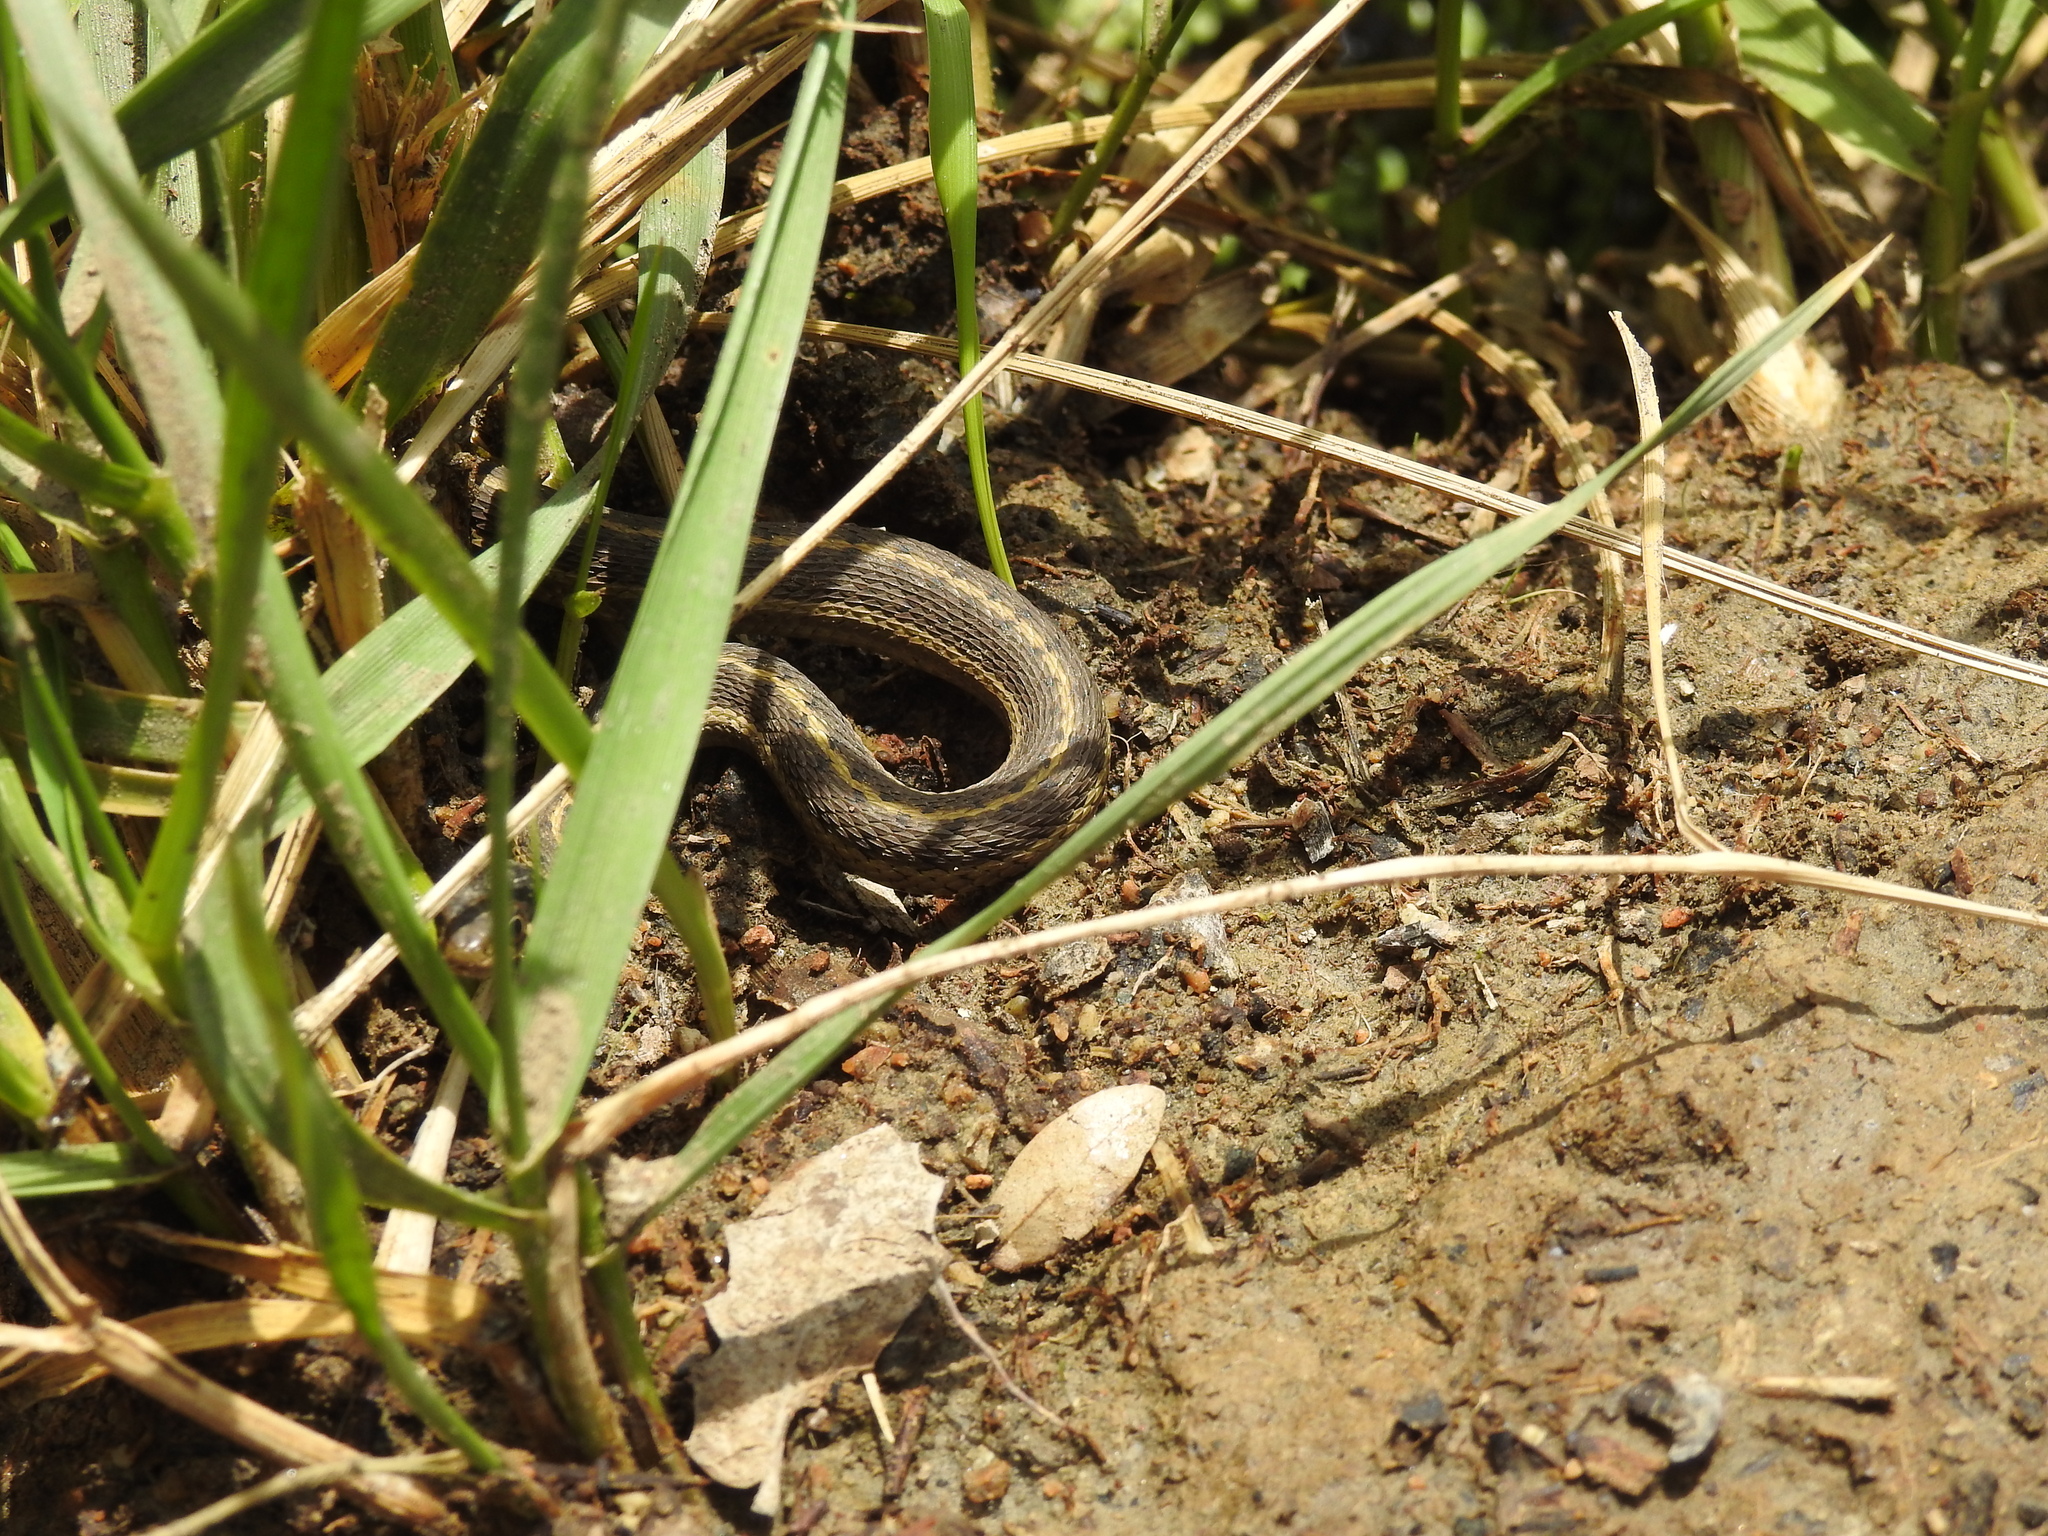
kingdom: Animalia
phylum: Chordata
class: Squamata
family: Colubridae
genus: Thamnophis
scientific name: Thamnophis elegans
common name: Western terrestrial garter snake
